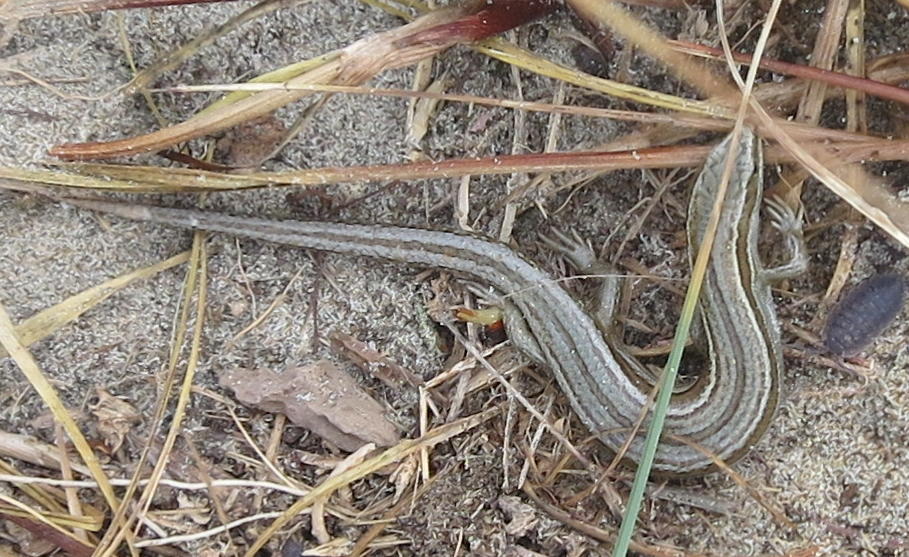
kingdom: Animalia
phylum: Chordata
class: Squamata
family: Scincidae
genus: Oligosoma
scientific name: Oligosoma polychroma
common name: Common new zealand skink
